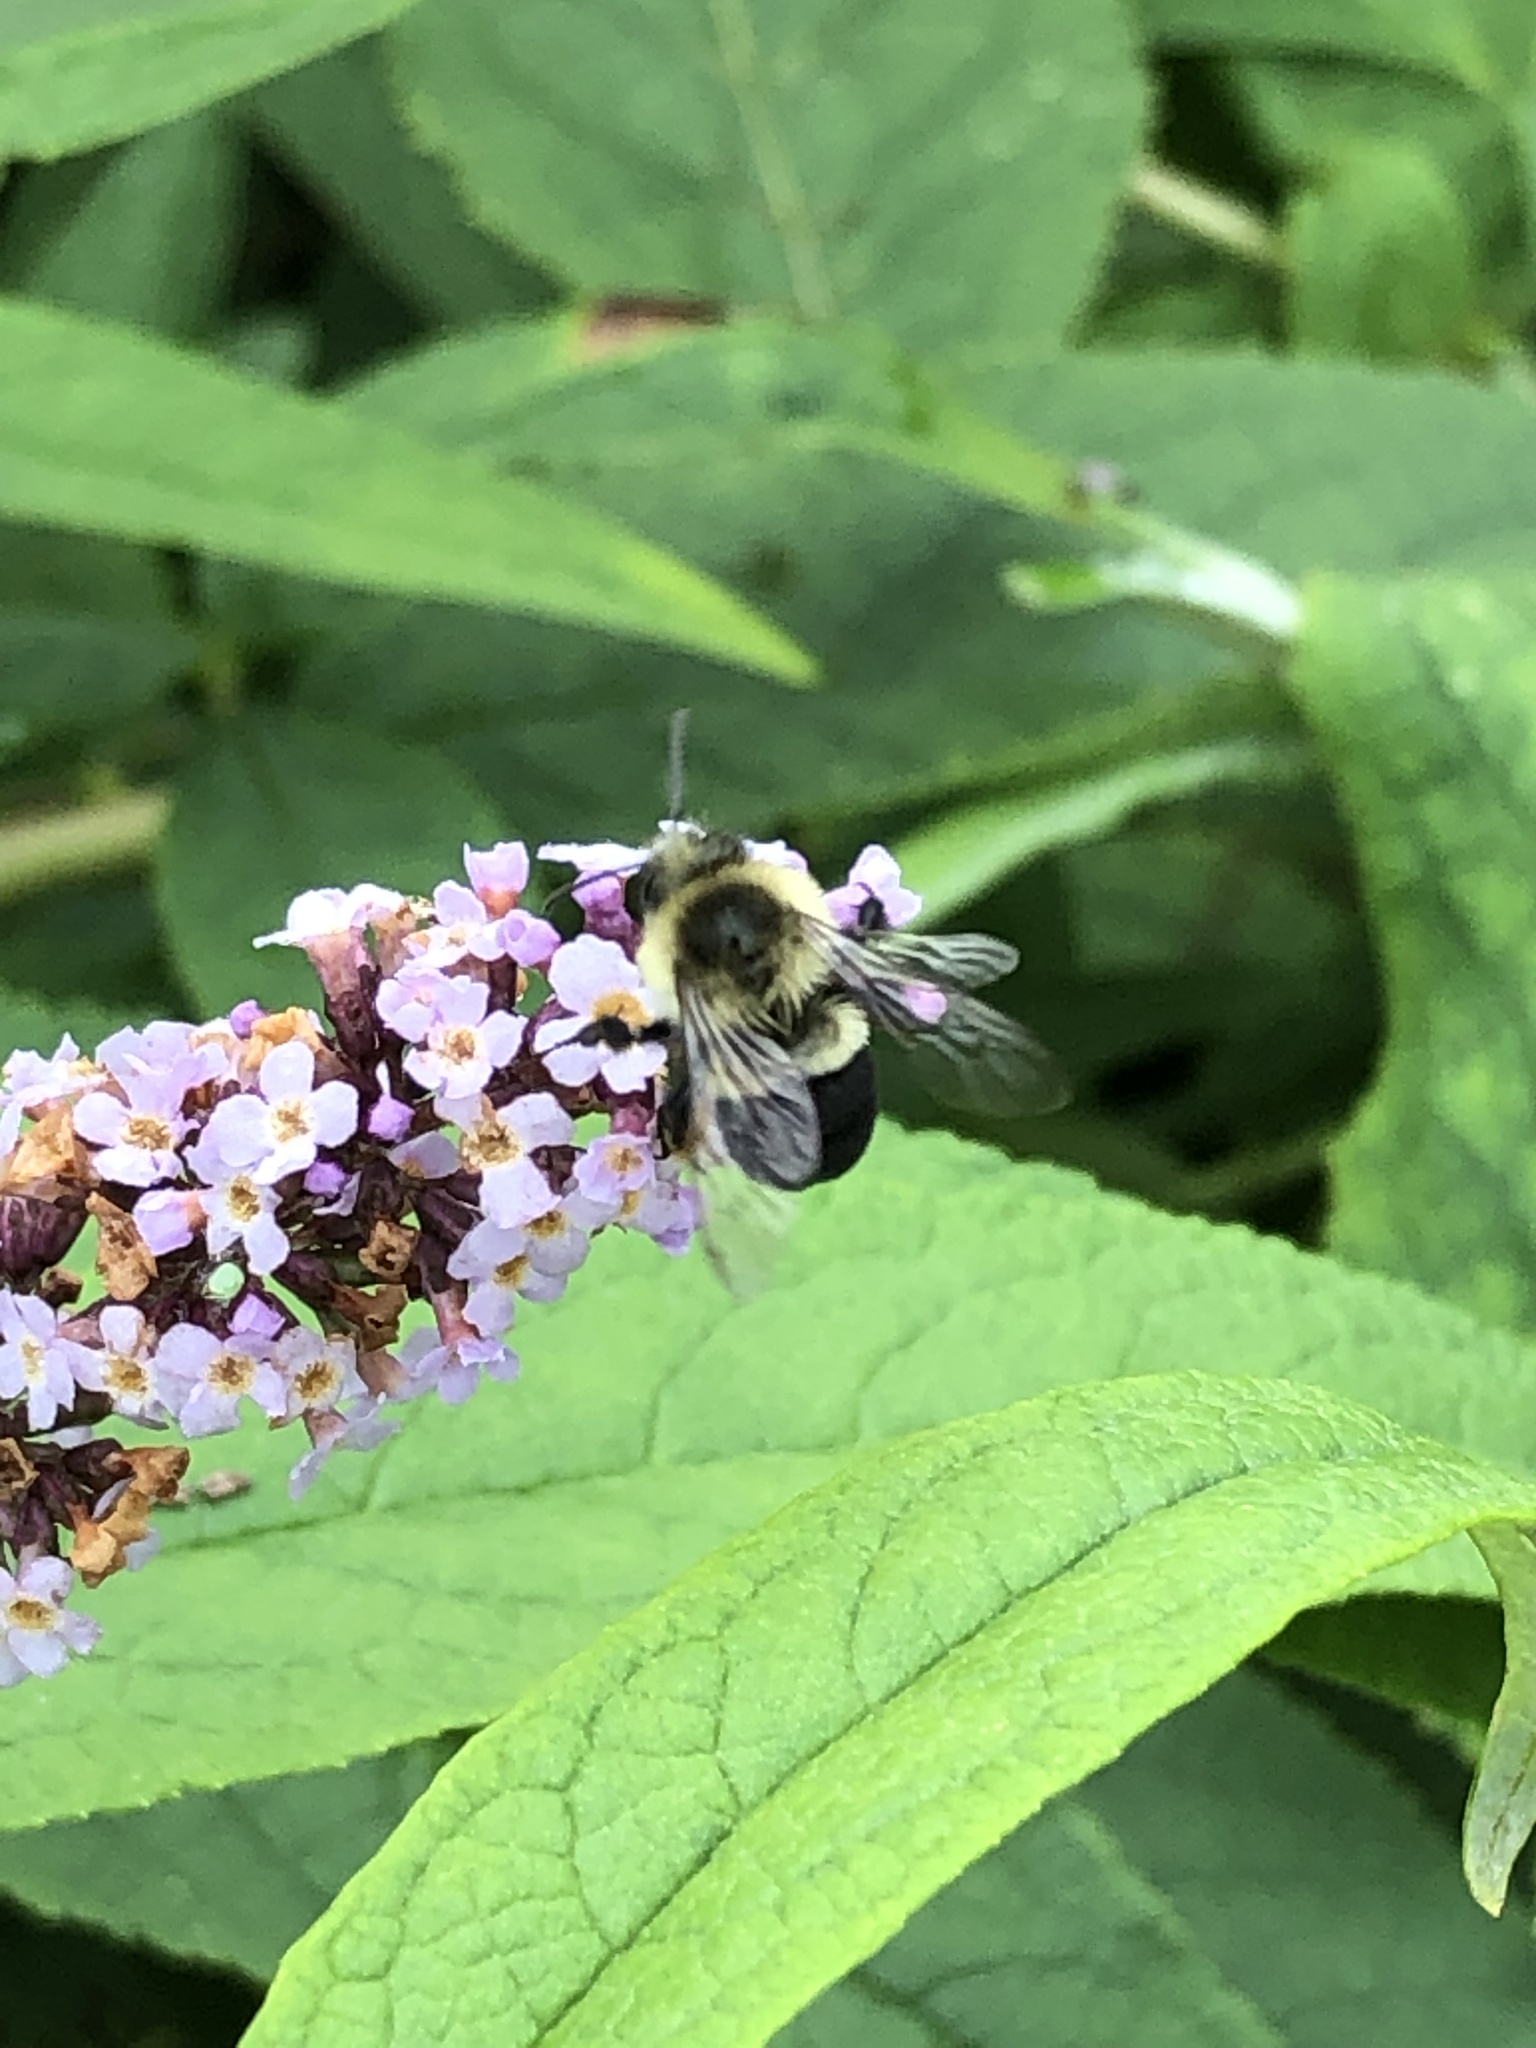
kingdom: Animalia
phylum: Arthropoda
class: Insecta
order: Hymenoptera
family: Apidae
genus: Bombus
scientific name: Bombus impatiens
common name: Common eastern bumble bee
